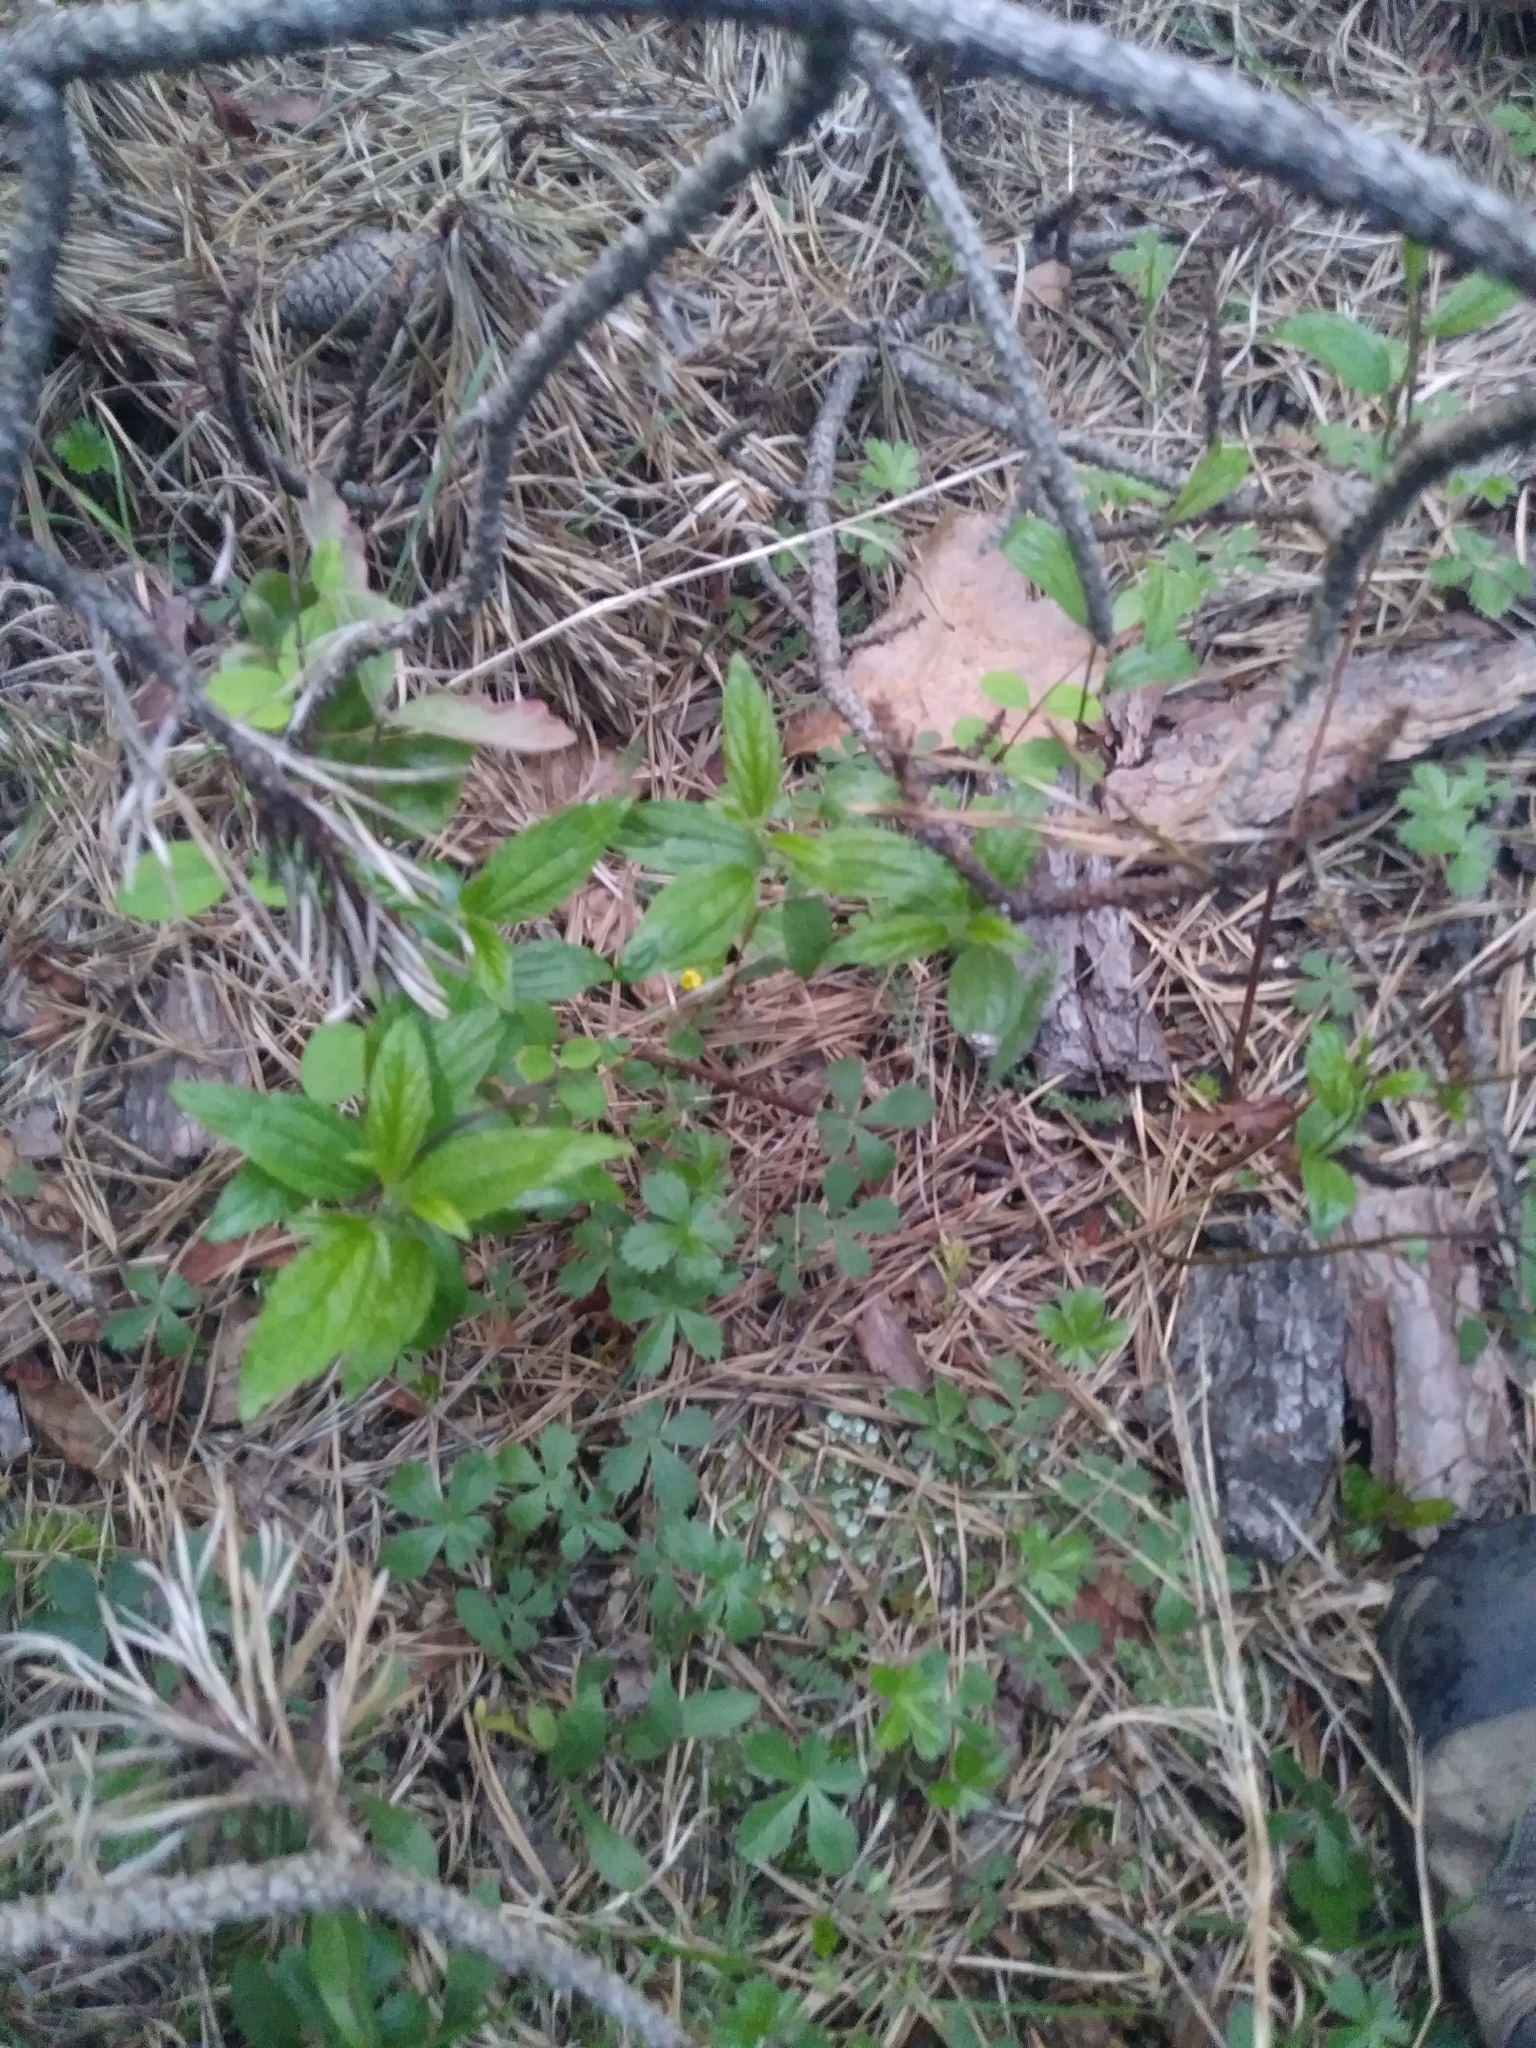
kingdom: Plantae
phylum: Tracheophyta
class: Magnoliopsida
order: Rosales
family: Rhamnaceae
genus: Ceanothus
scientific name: Ceanothus americanus
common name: Redroot
